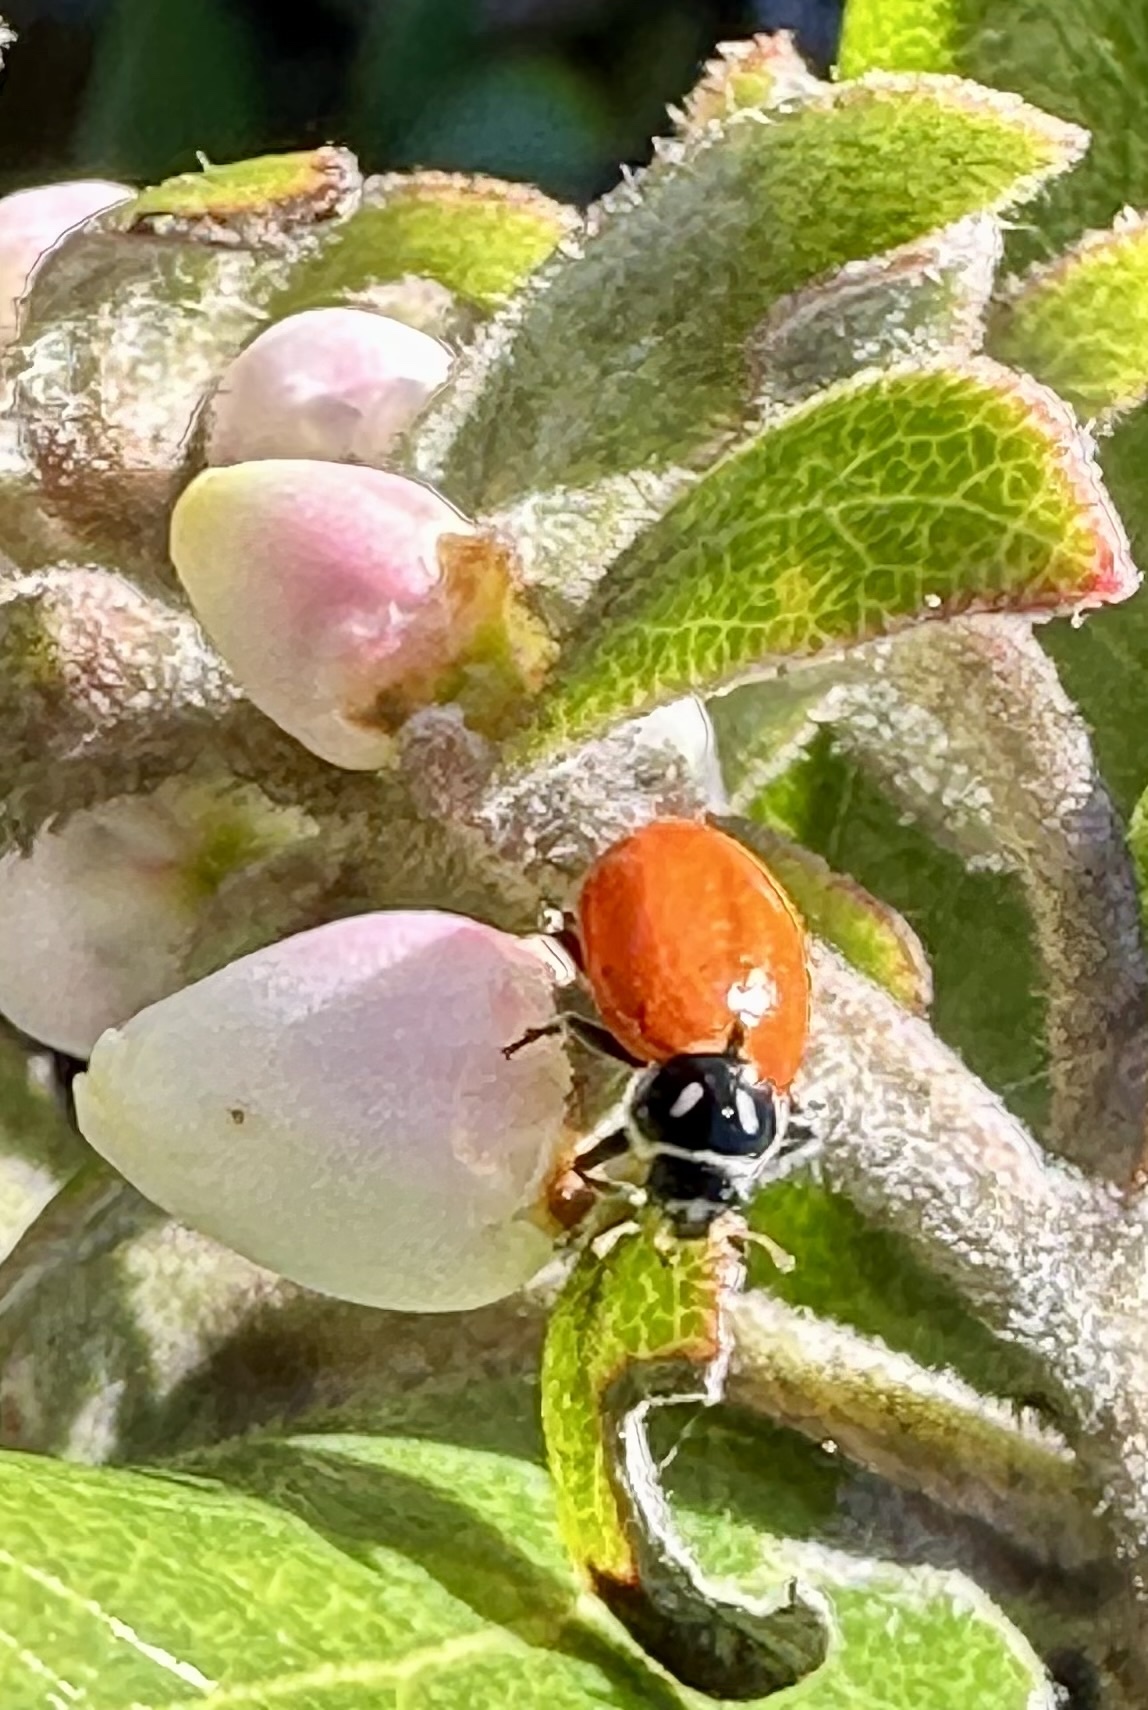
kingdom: Animalia
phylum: Arthropoda
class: Insecta
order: Coleoptera
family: Coccinellidae
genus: Hippodamia
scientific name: Hippodamia convergens
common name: Convergent lady beetle
